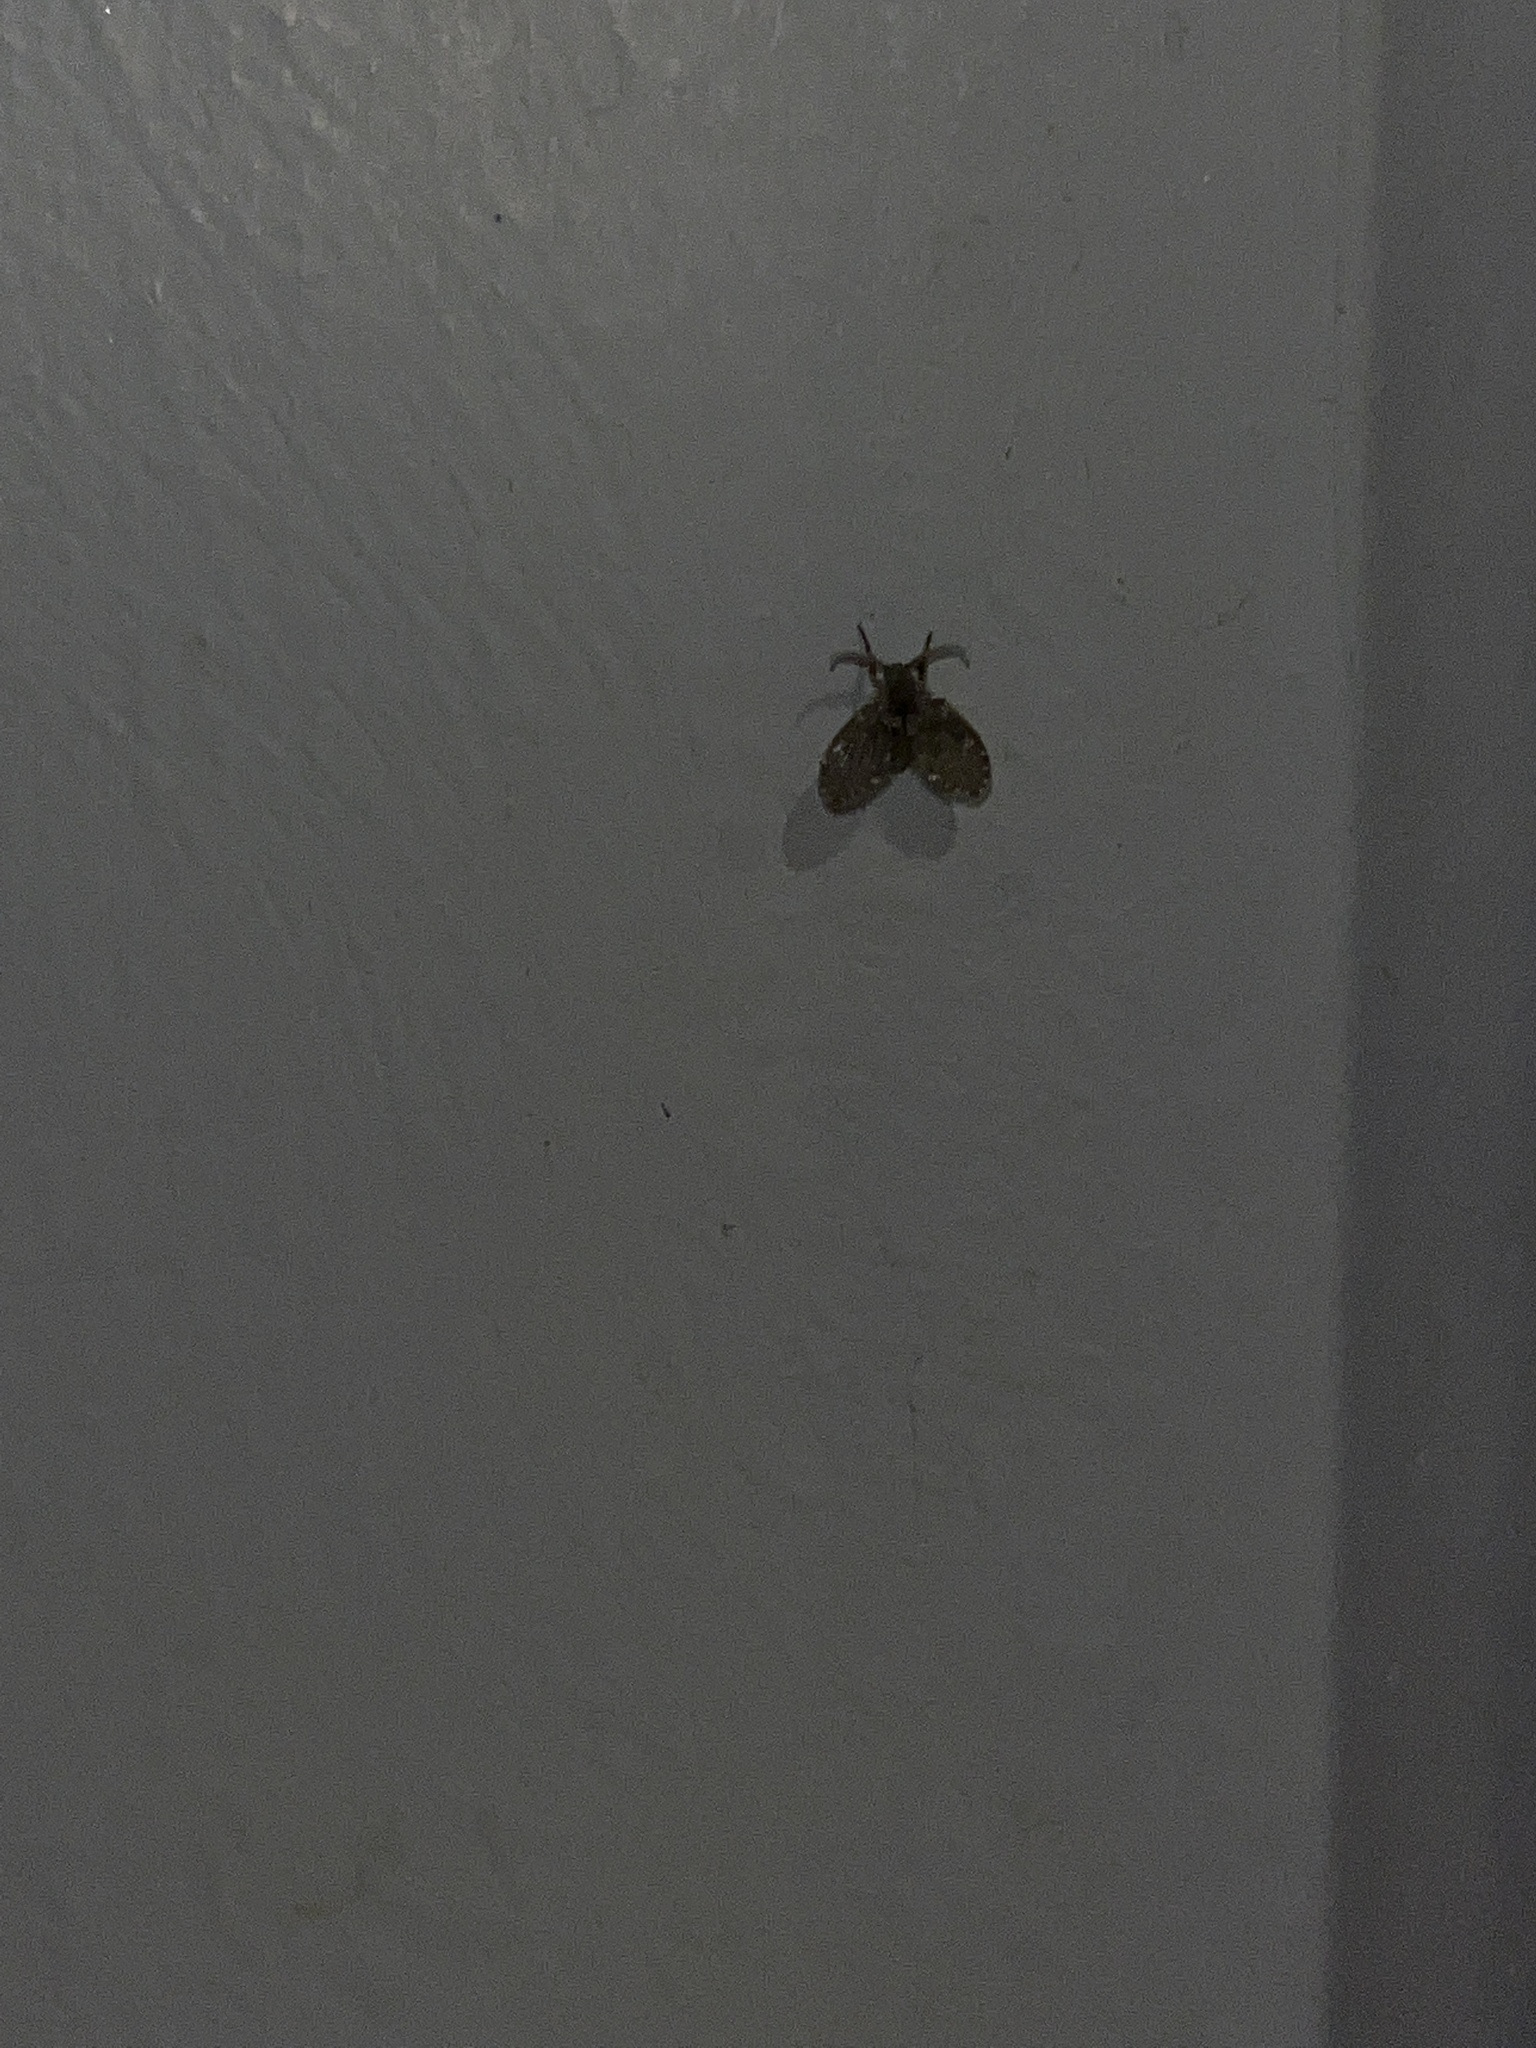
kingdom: Animalia
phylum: Arthropoda
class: Insecta
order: Diptera
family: Psychodidae
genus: Clogmia
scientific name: Clogmia albipunctatus
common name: White-spotted moth fly
